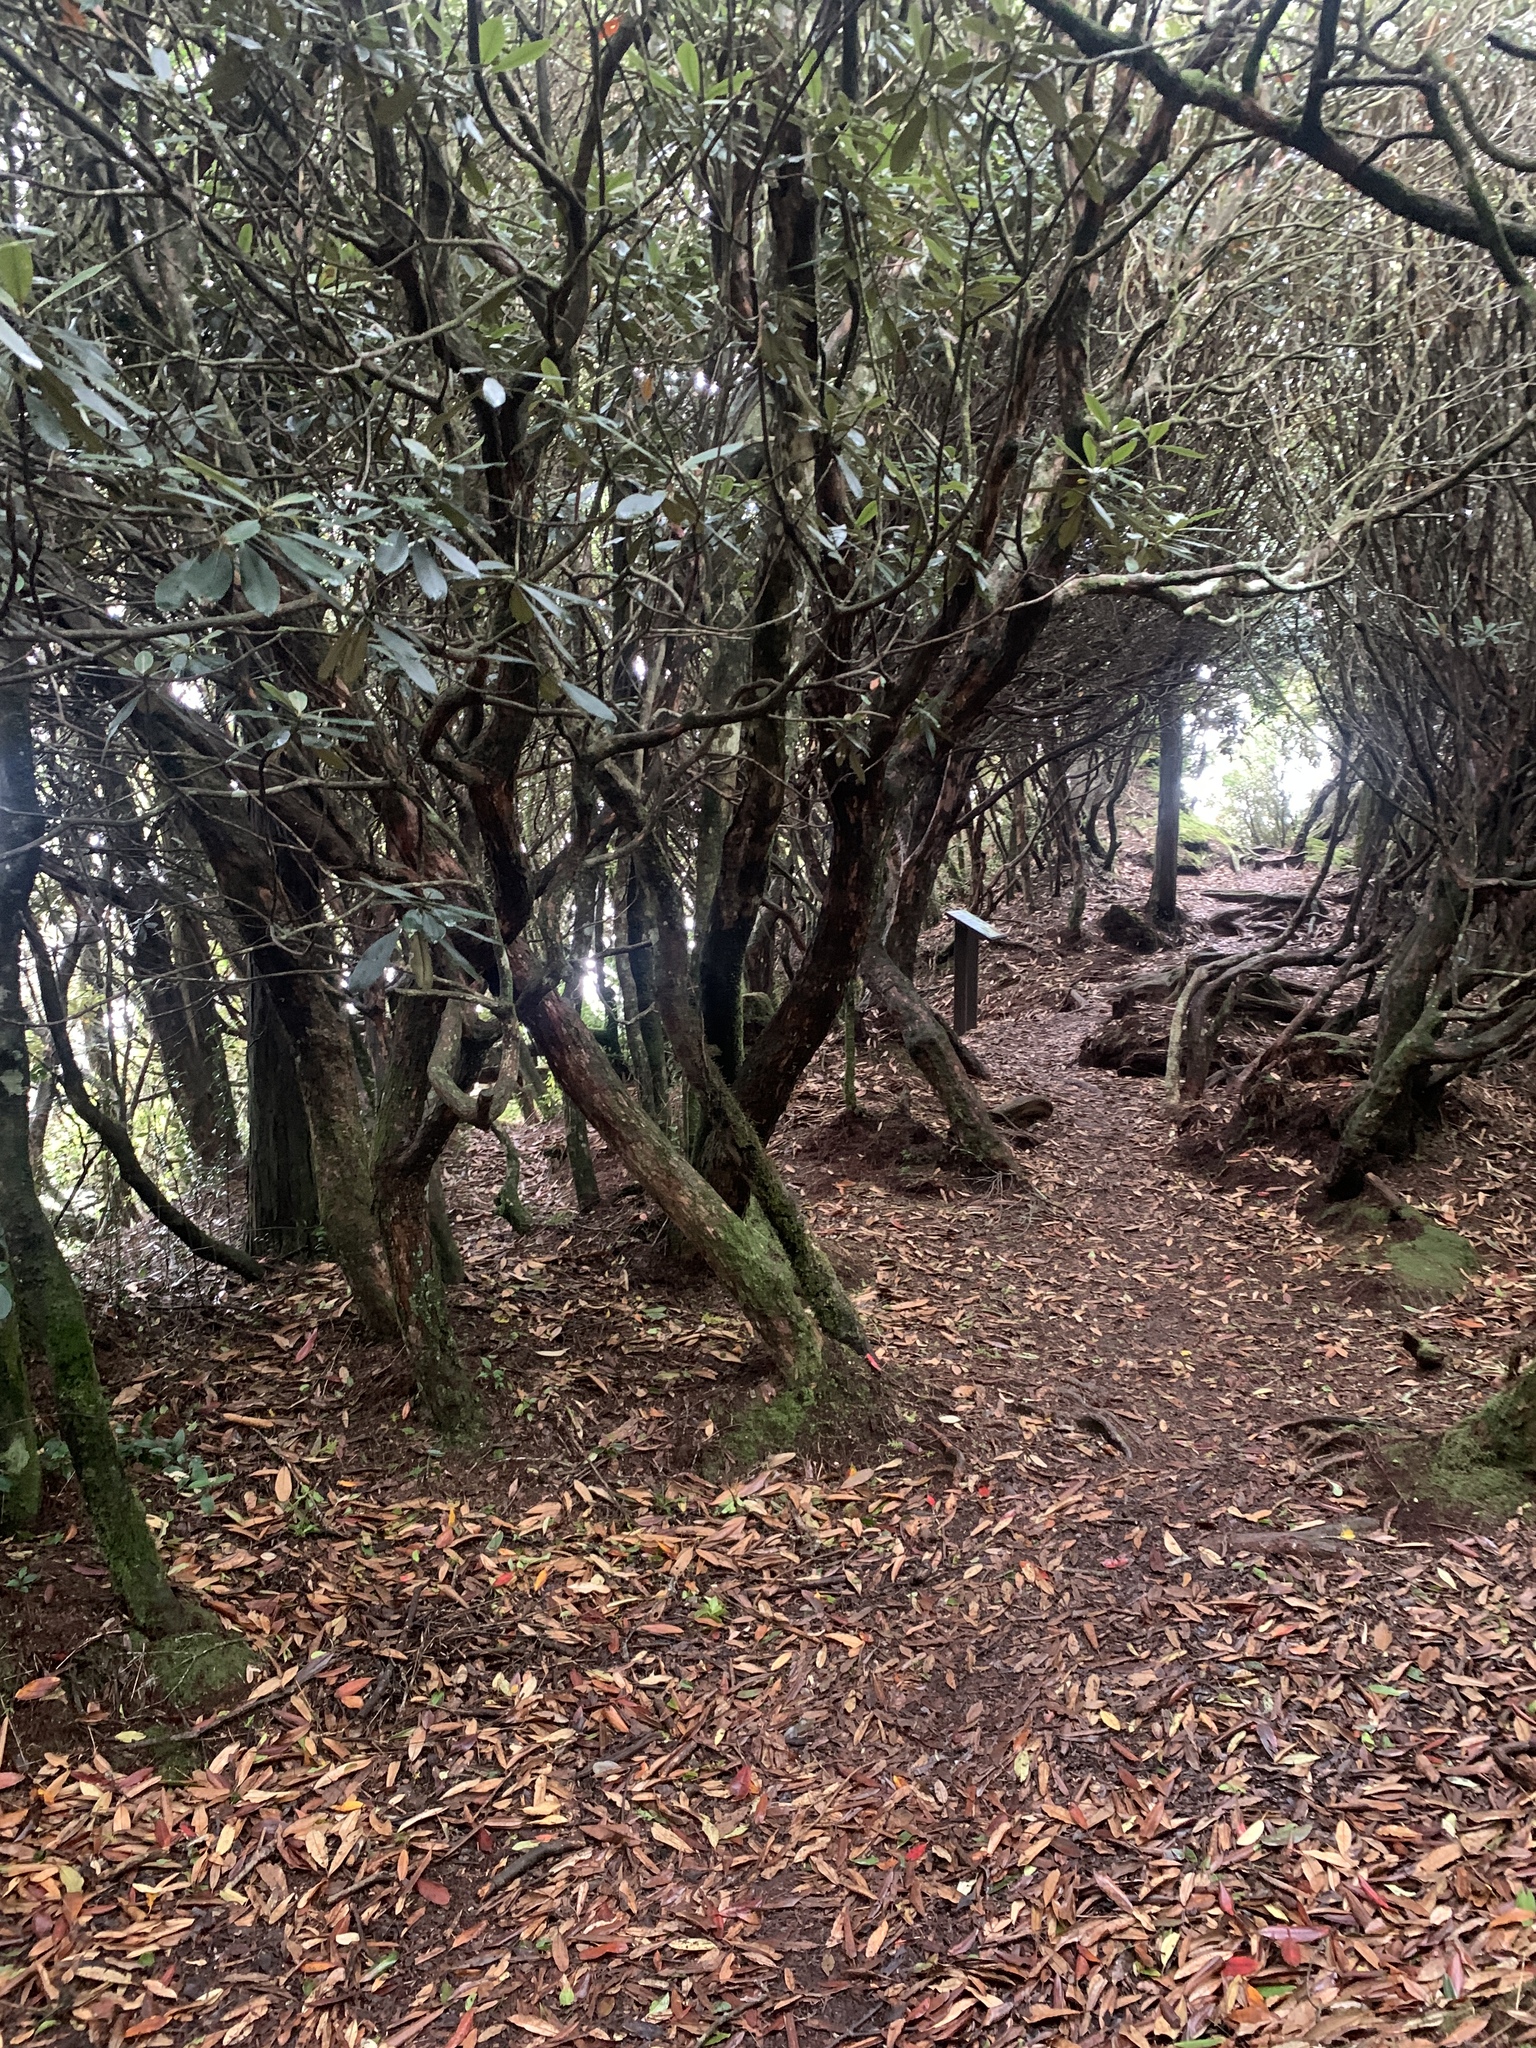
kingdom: Plantae
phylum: Tracheophyta
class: Magnoliopsida
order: Ericales
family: Ericaceae
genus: Rhododendron
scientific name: Rhododendron formosanum
